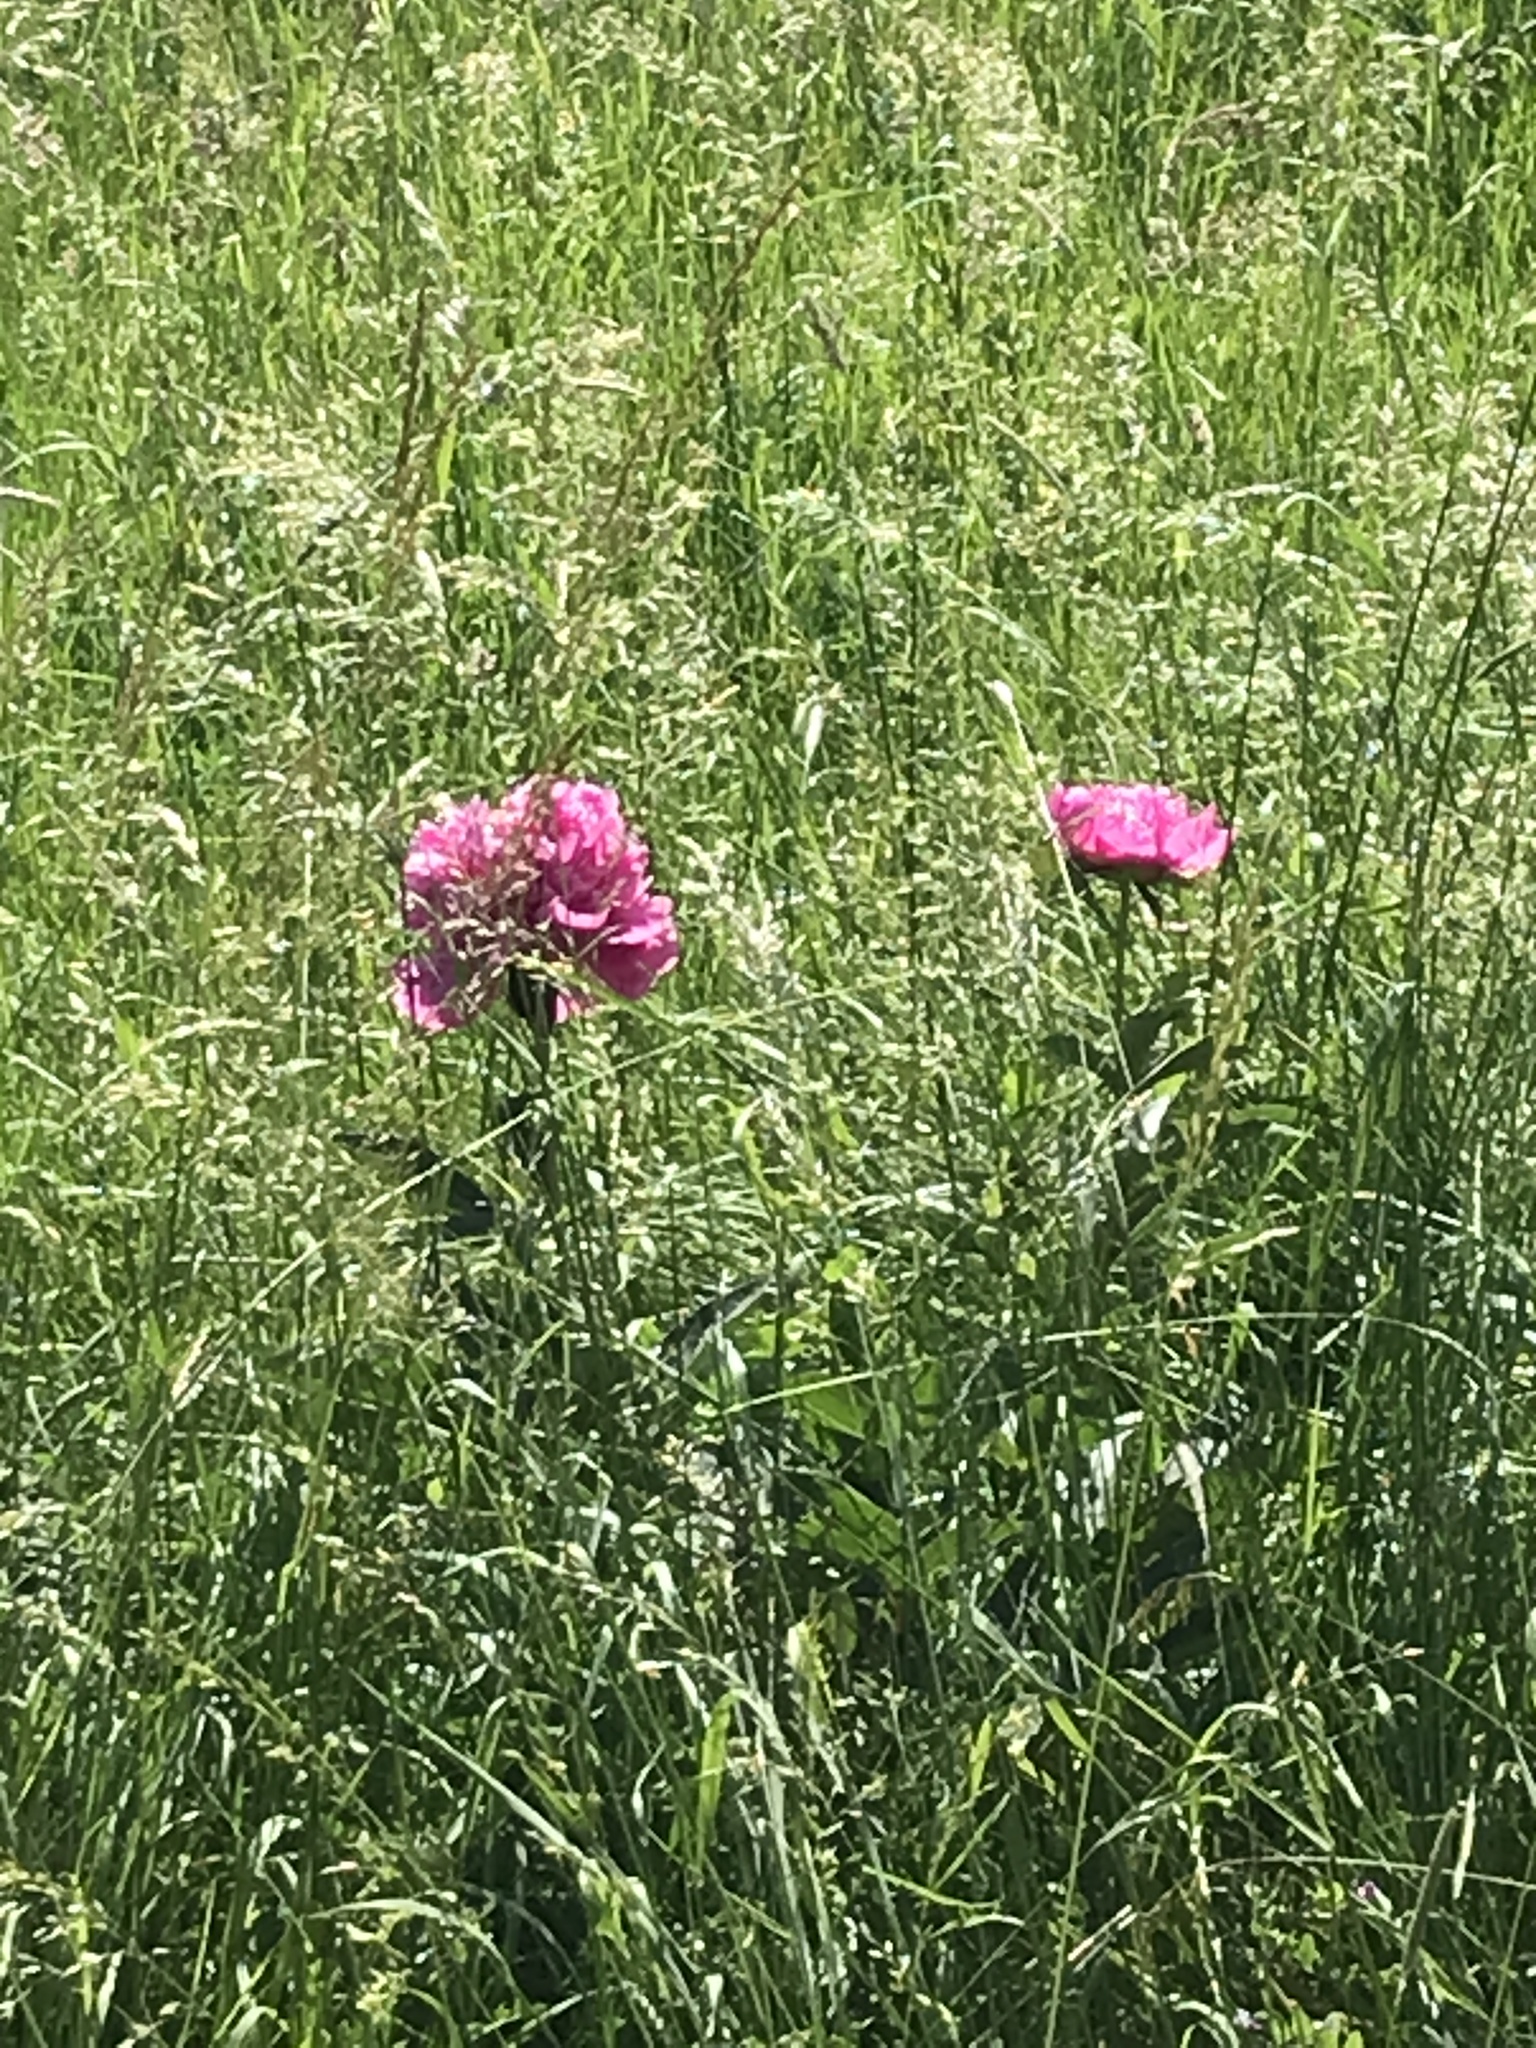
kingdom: Plantae
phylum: Tracheophyta
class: Magnoliopsida
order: Ranunculales
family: Papaveraceae
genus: Papaver
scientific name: Papaver somniferum
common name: Opium poppy
